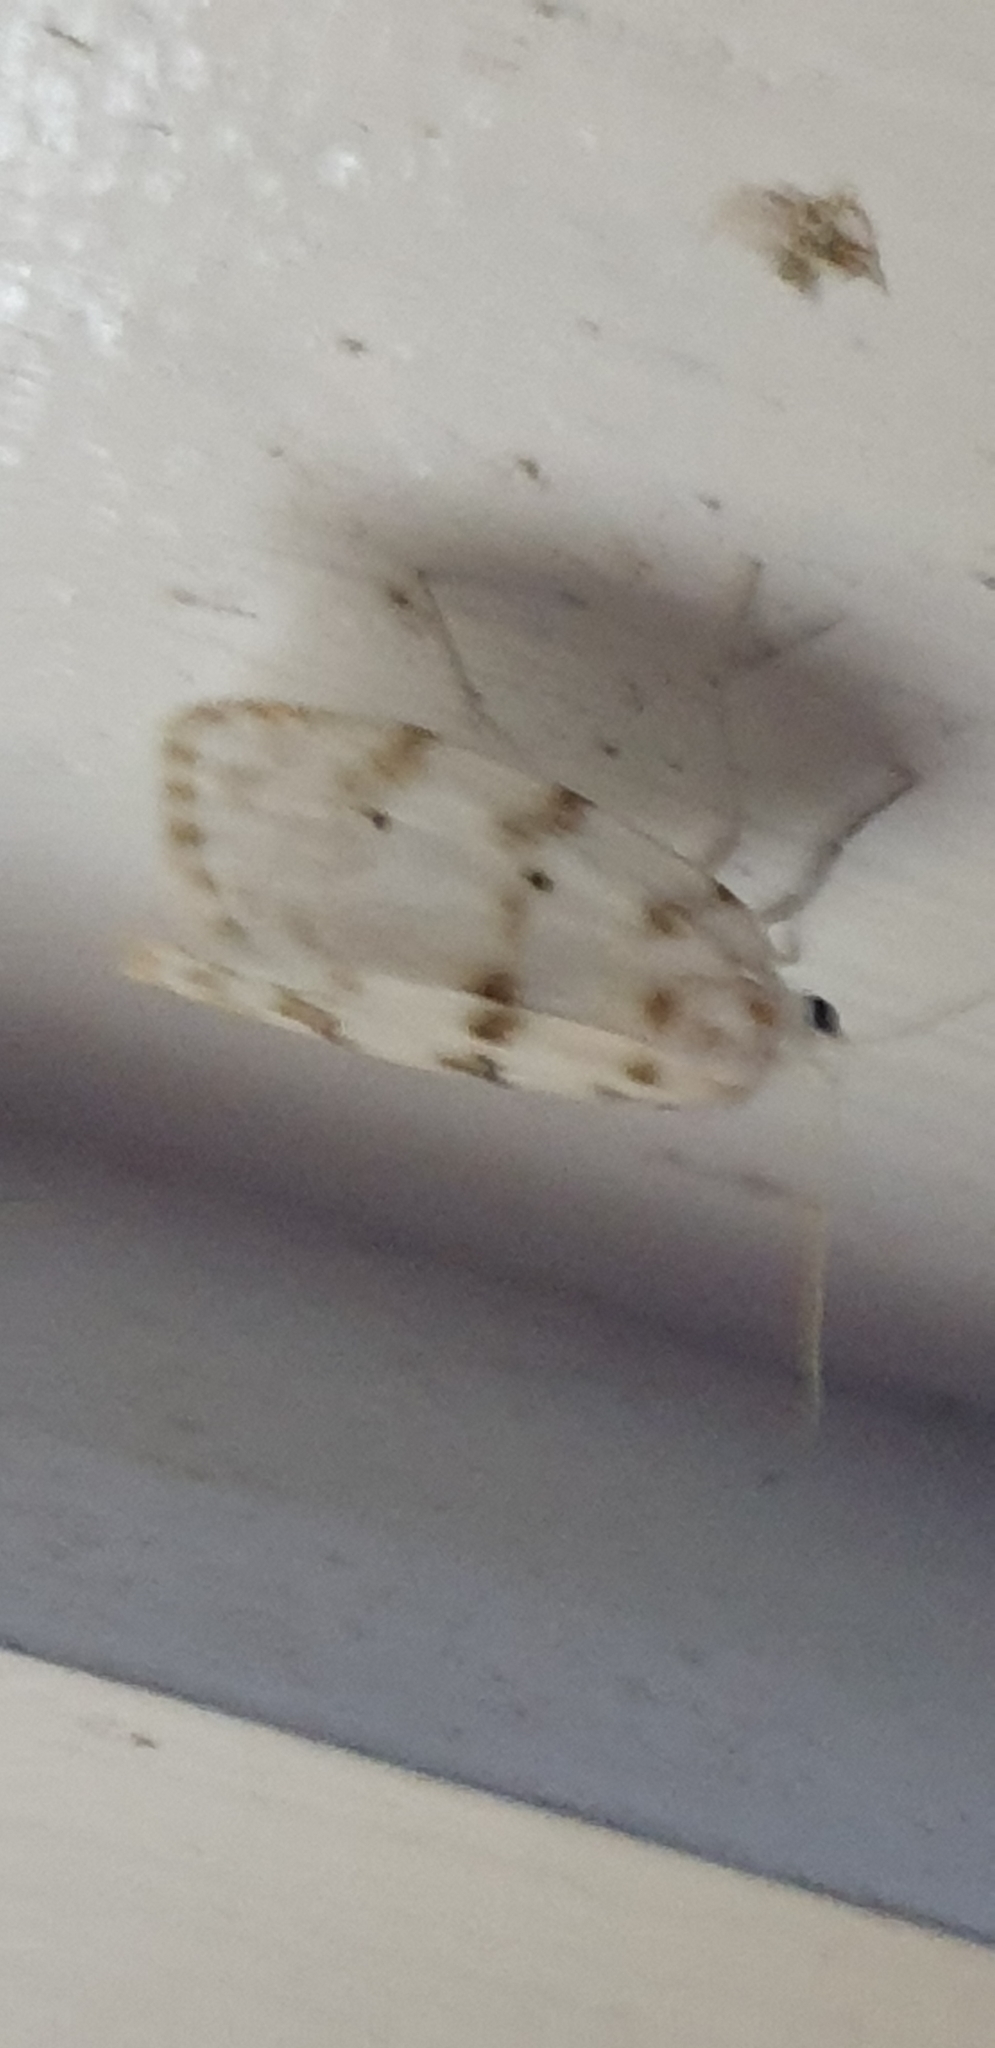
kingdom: Animalia
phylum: Arthropoda
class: Insecta
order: Lepidoptera
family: Erebidae
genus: Schistophleps
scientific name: Schistophleps albida
